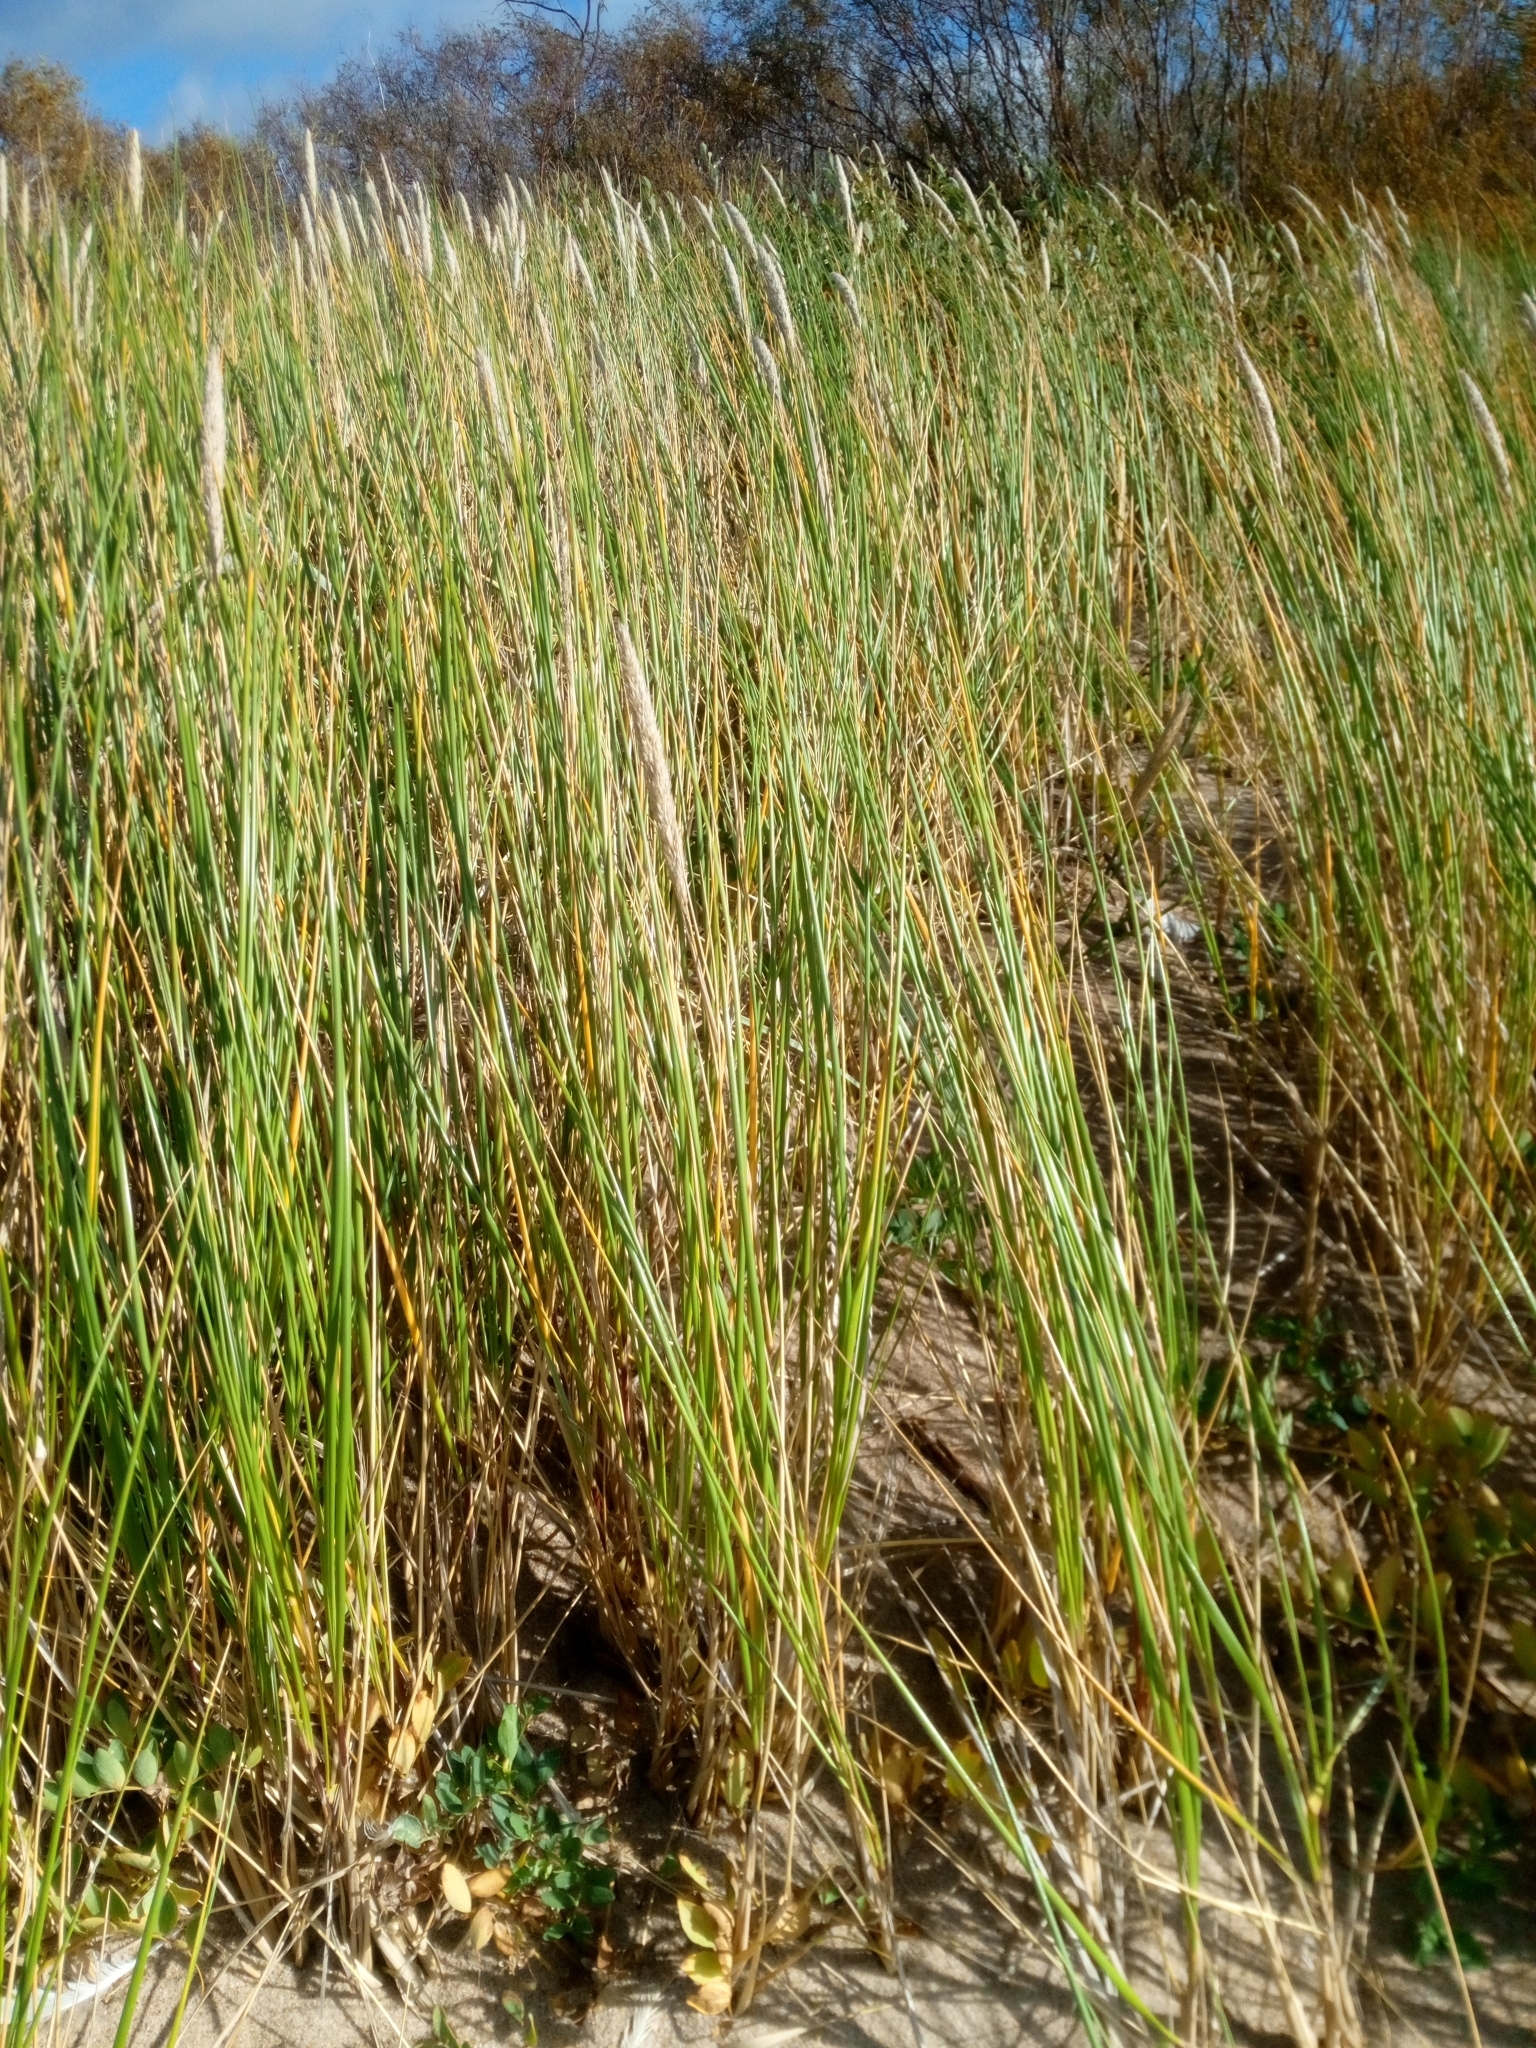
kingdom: Plantae
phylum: Tracheophyta
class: Liliopsida
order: Poales
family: Poaceae
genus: Calamagrostis
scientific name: Calamagrostis arenaria
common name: European beachgrass
